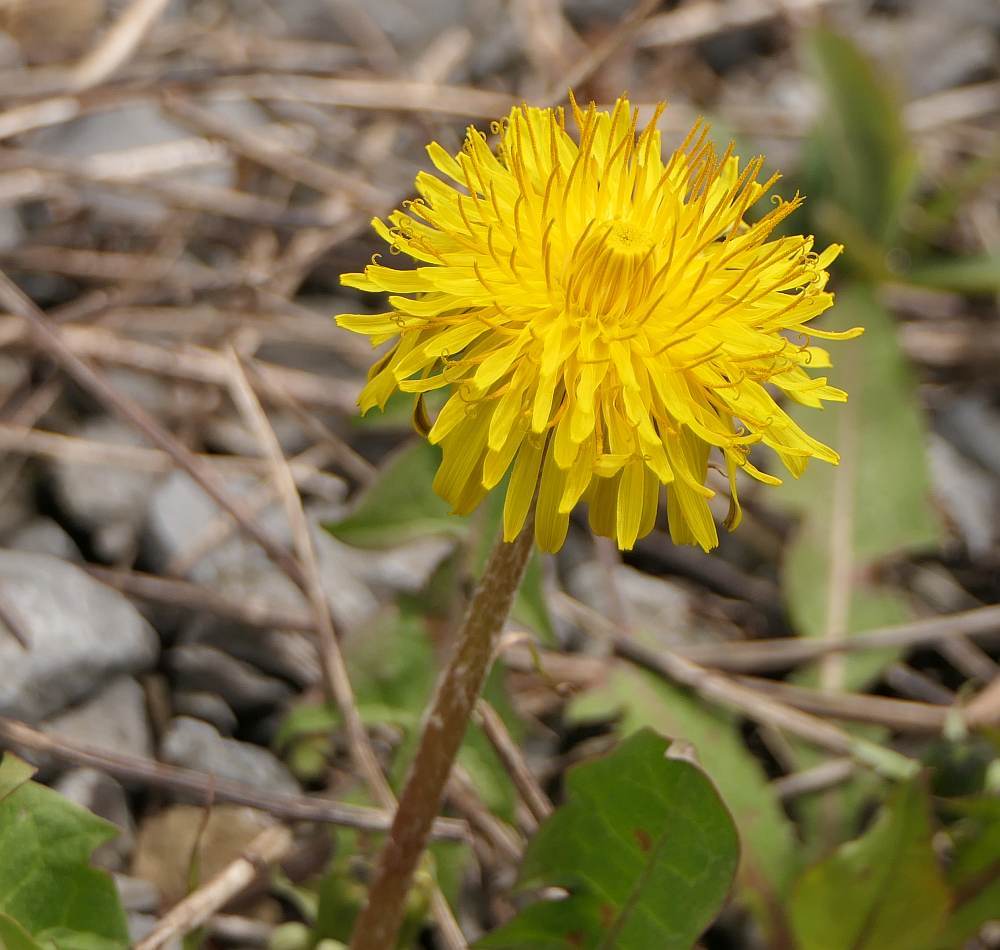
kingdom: Plantae
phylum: Tracheophyta
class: Magnoliopsida
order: Asterales
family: Asteraceae
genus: Taraxacum
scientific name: Taraxacum officinale
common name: Common dandelion
